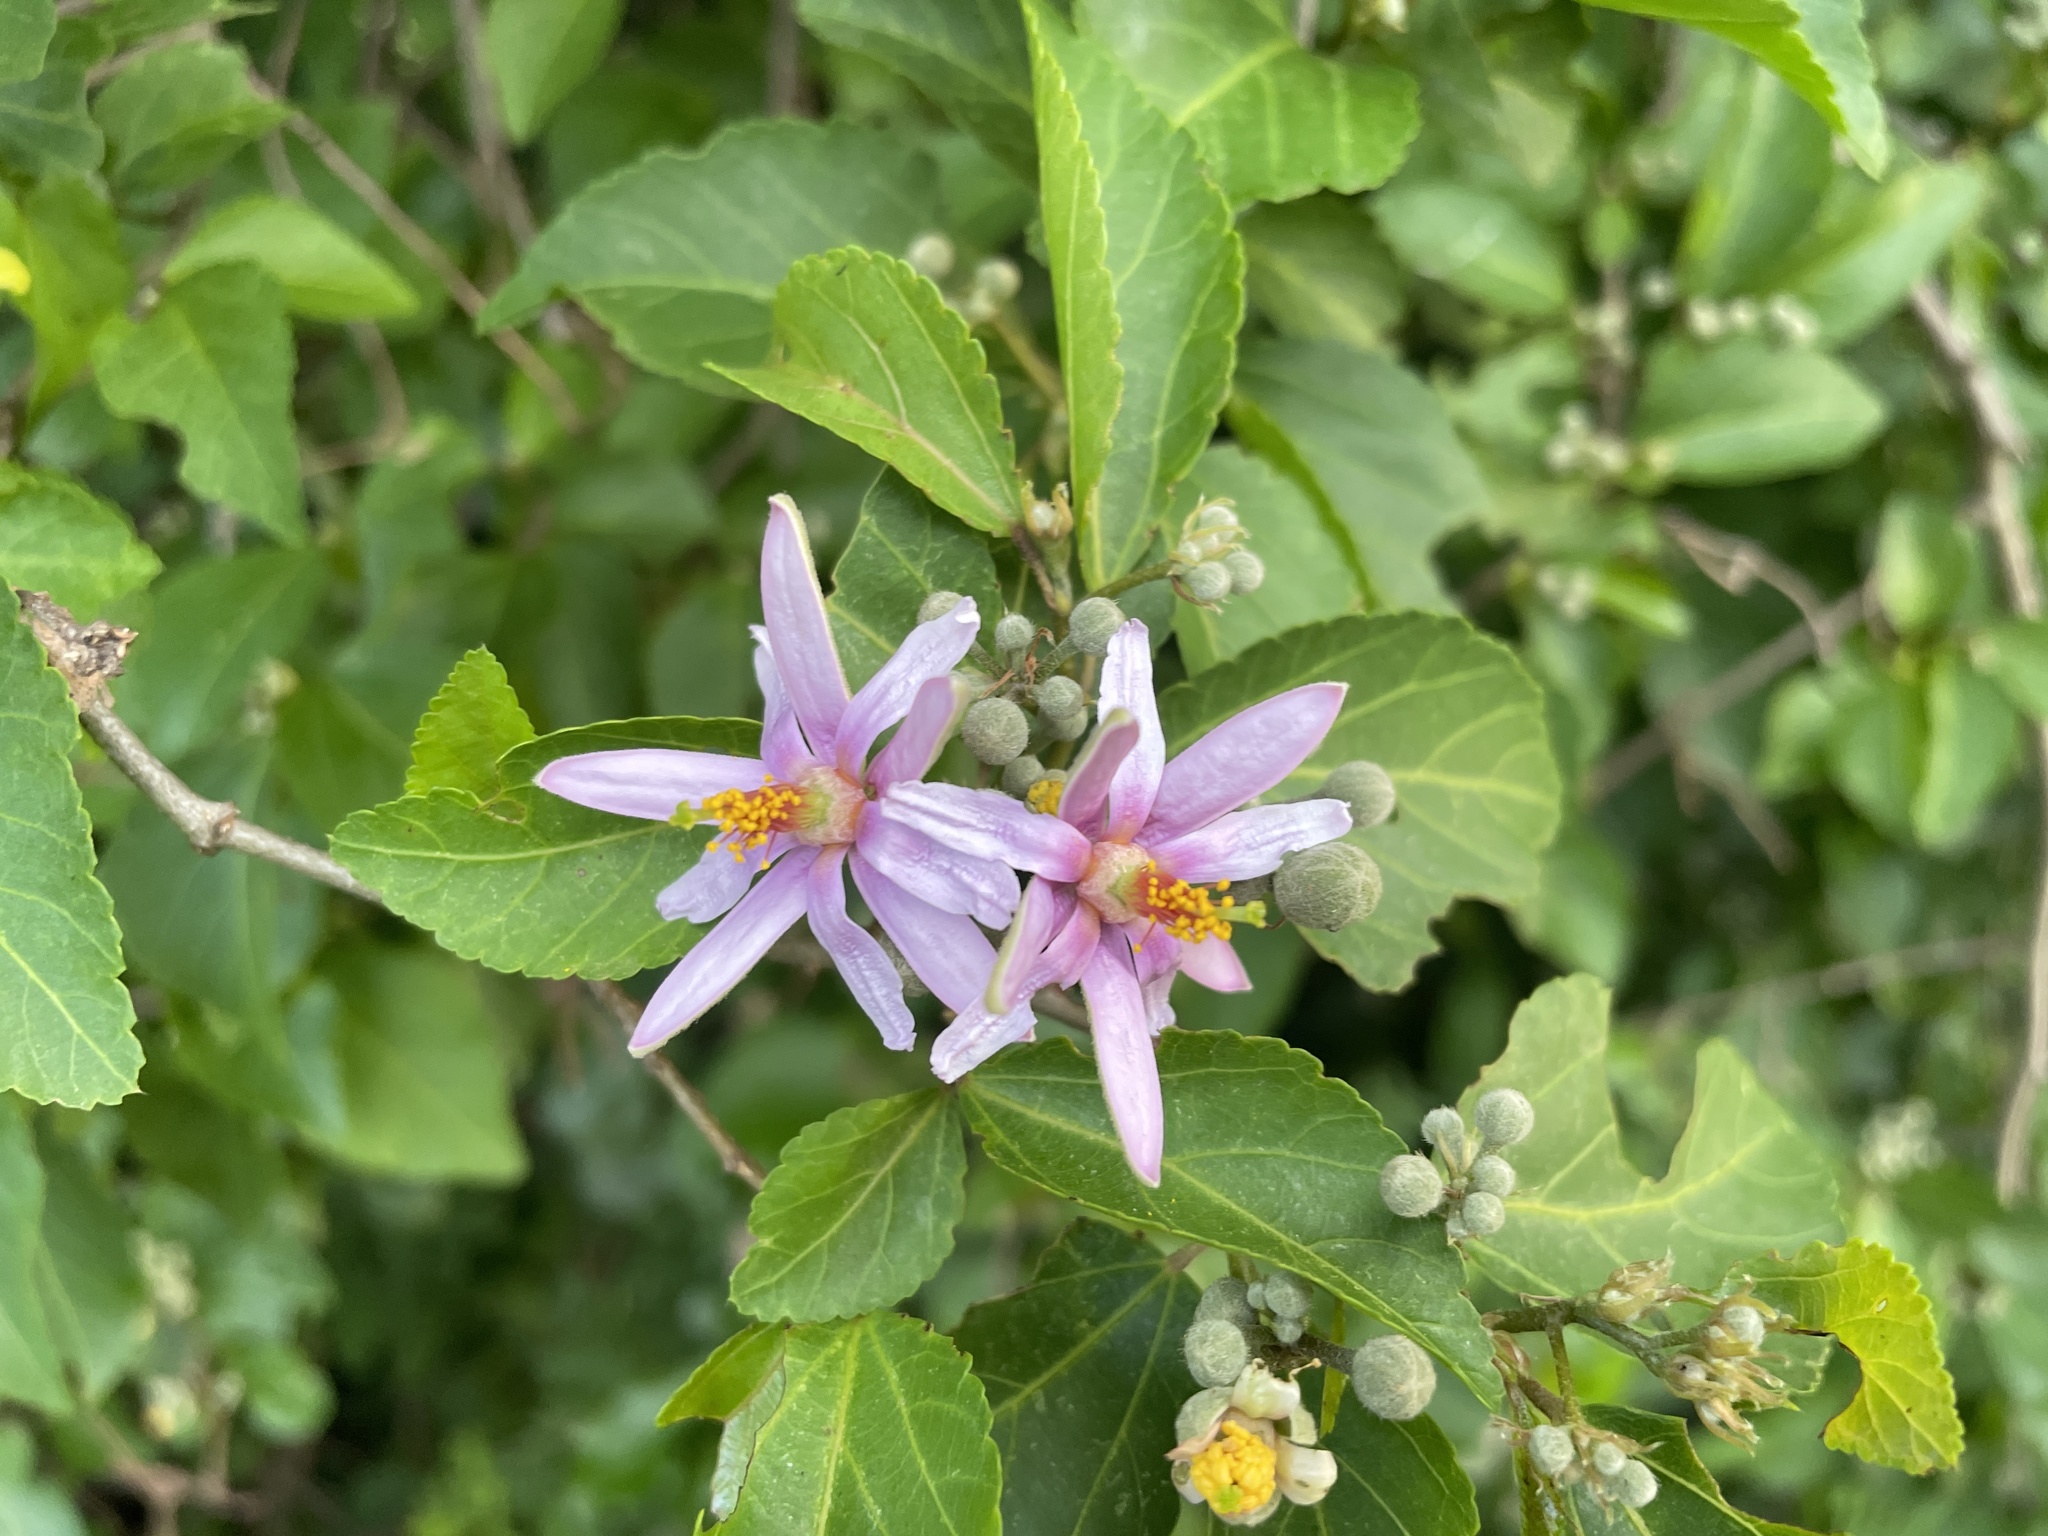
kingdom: Plantae
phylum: Tracheophyta
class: Magnoliopsida
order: Malvales
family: Malvaceae
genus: Grewia
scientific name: Grewia occidentalis
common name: Crossberry
